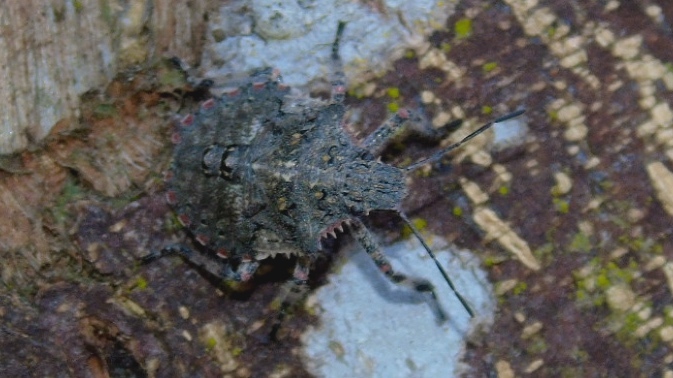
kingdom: Animalia
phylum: Arthropoda
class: Insecta
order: Hemiptera
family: Pentatomidae
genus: Brochymena
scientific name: Brochymena
